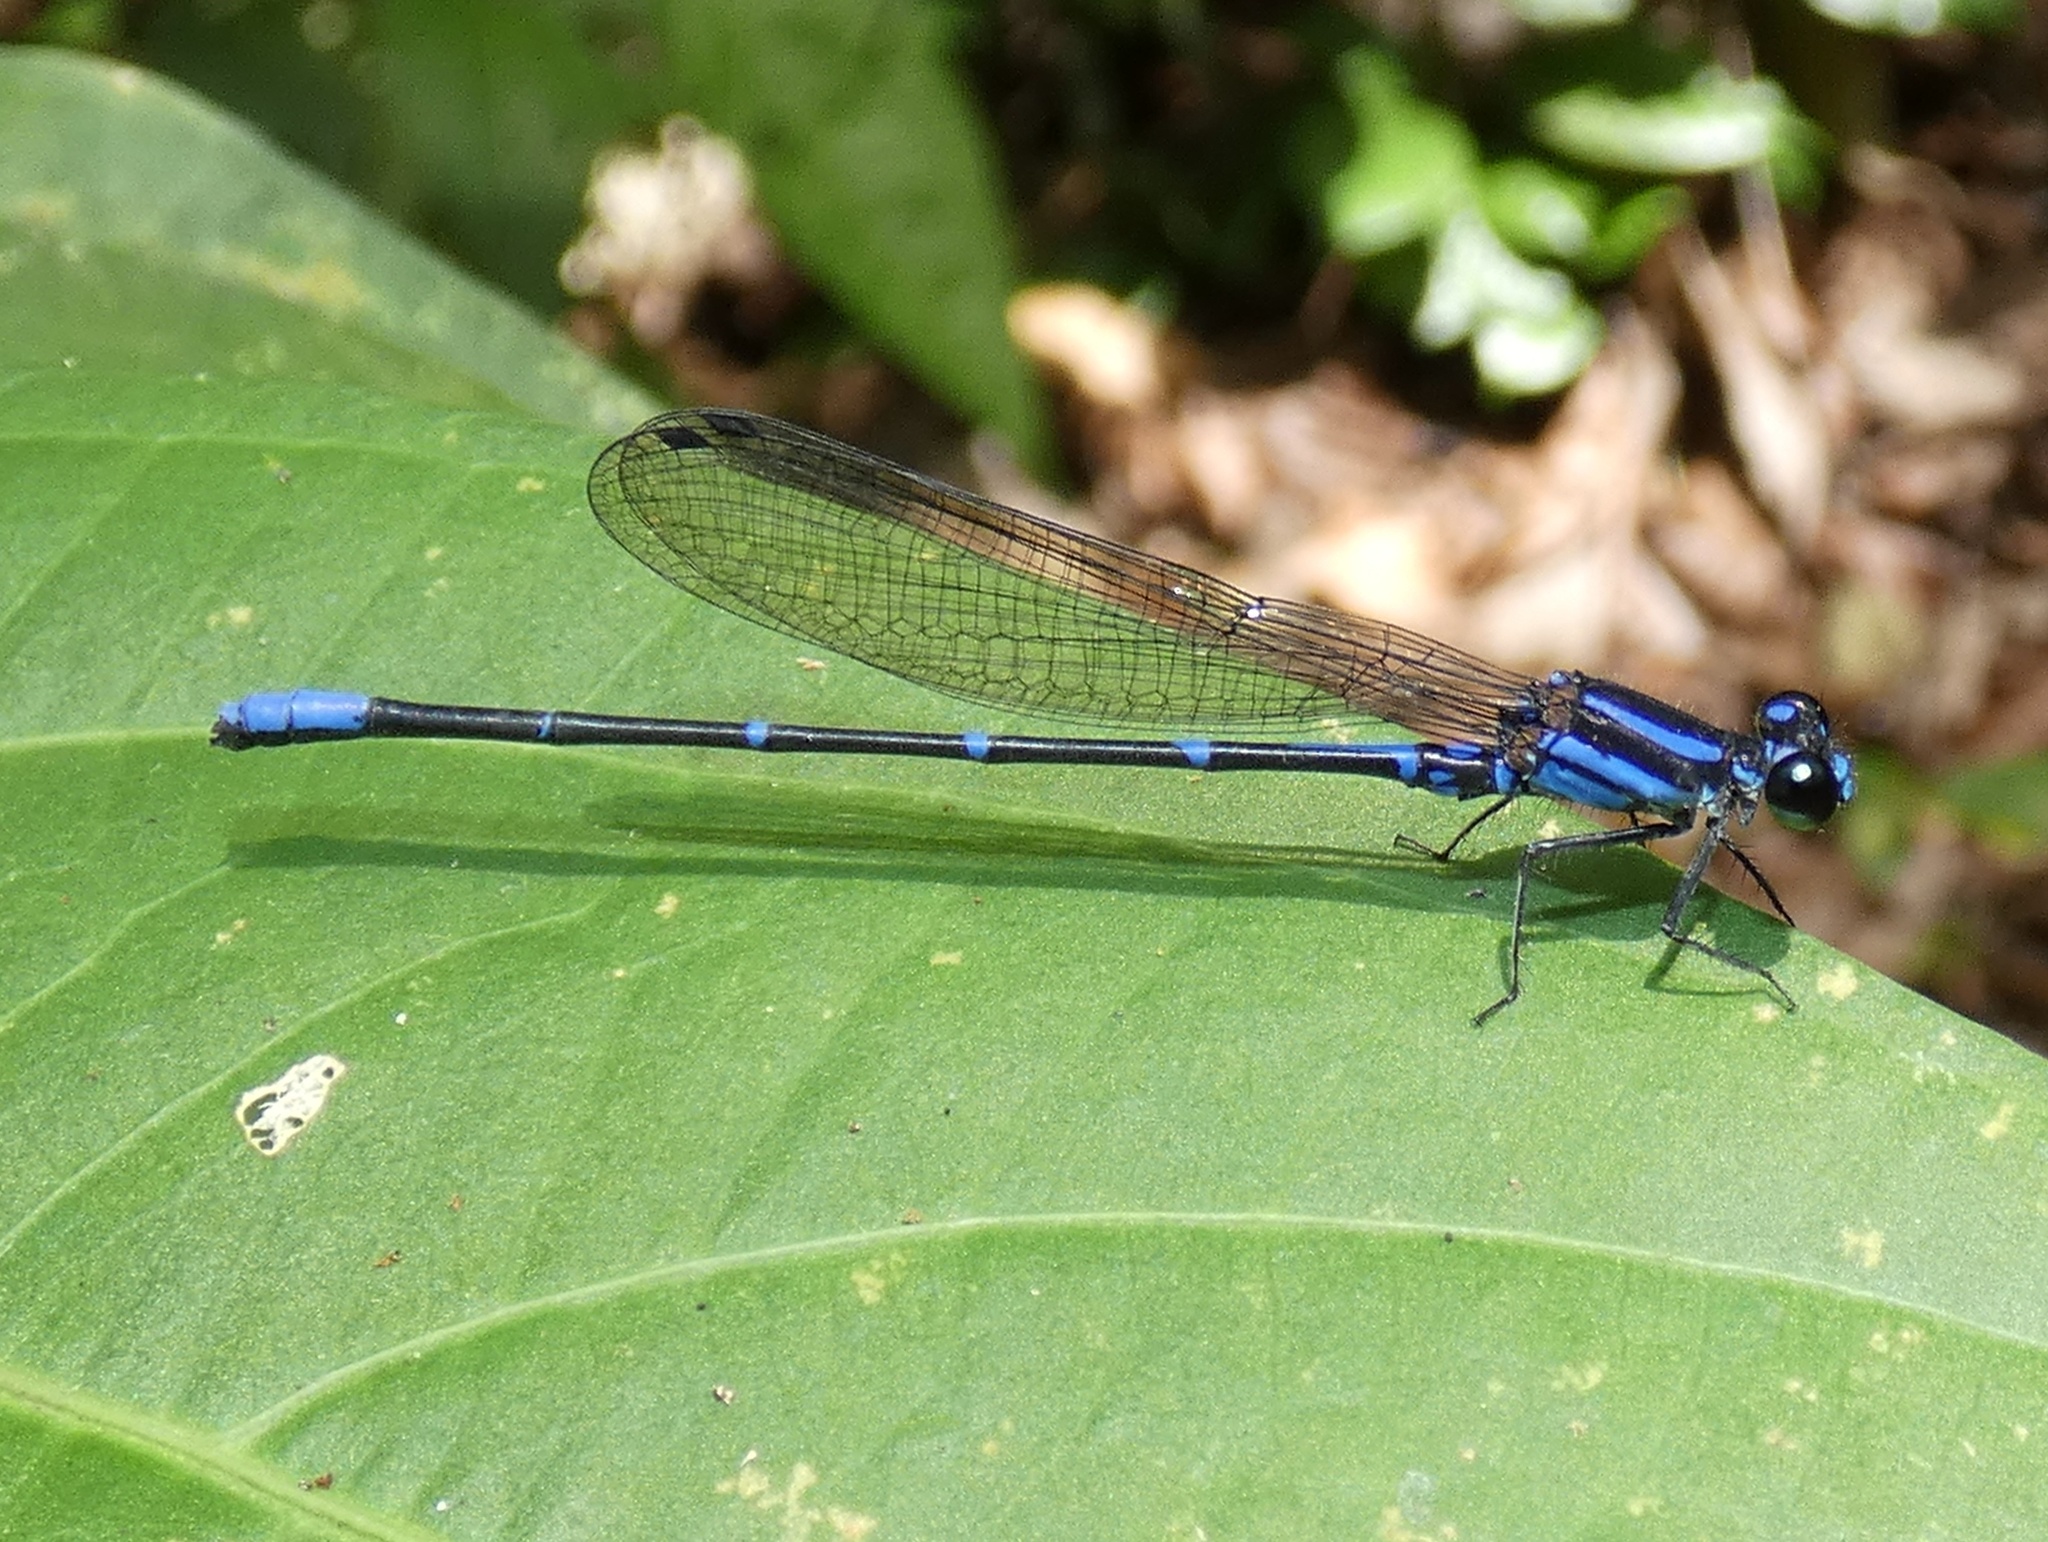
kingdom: Animalia
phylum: Arthropoda
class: Insecta
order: Odonata
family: Coenagrionidae
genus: Argia
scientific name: Argia oculata
